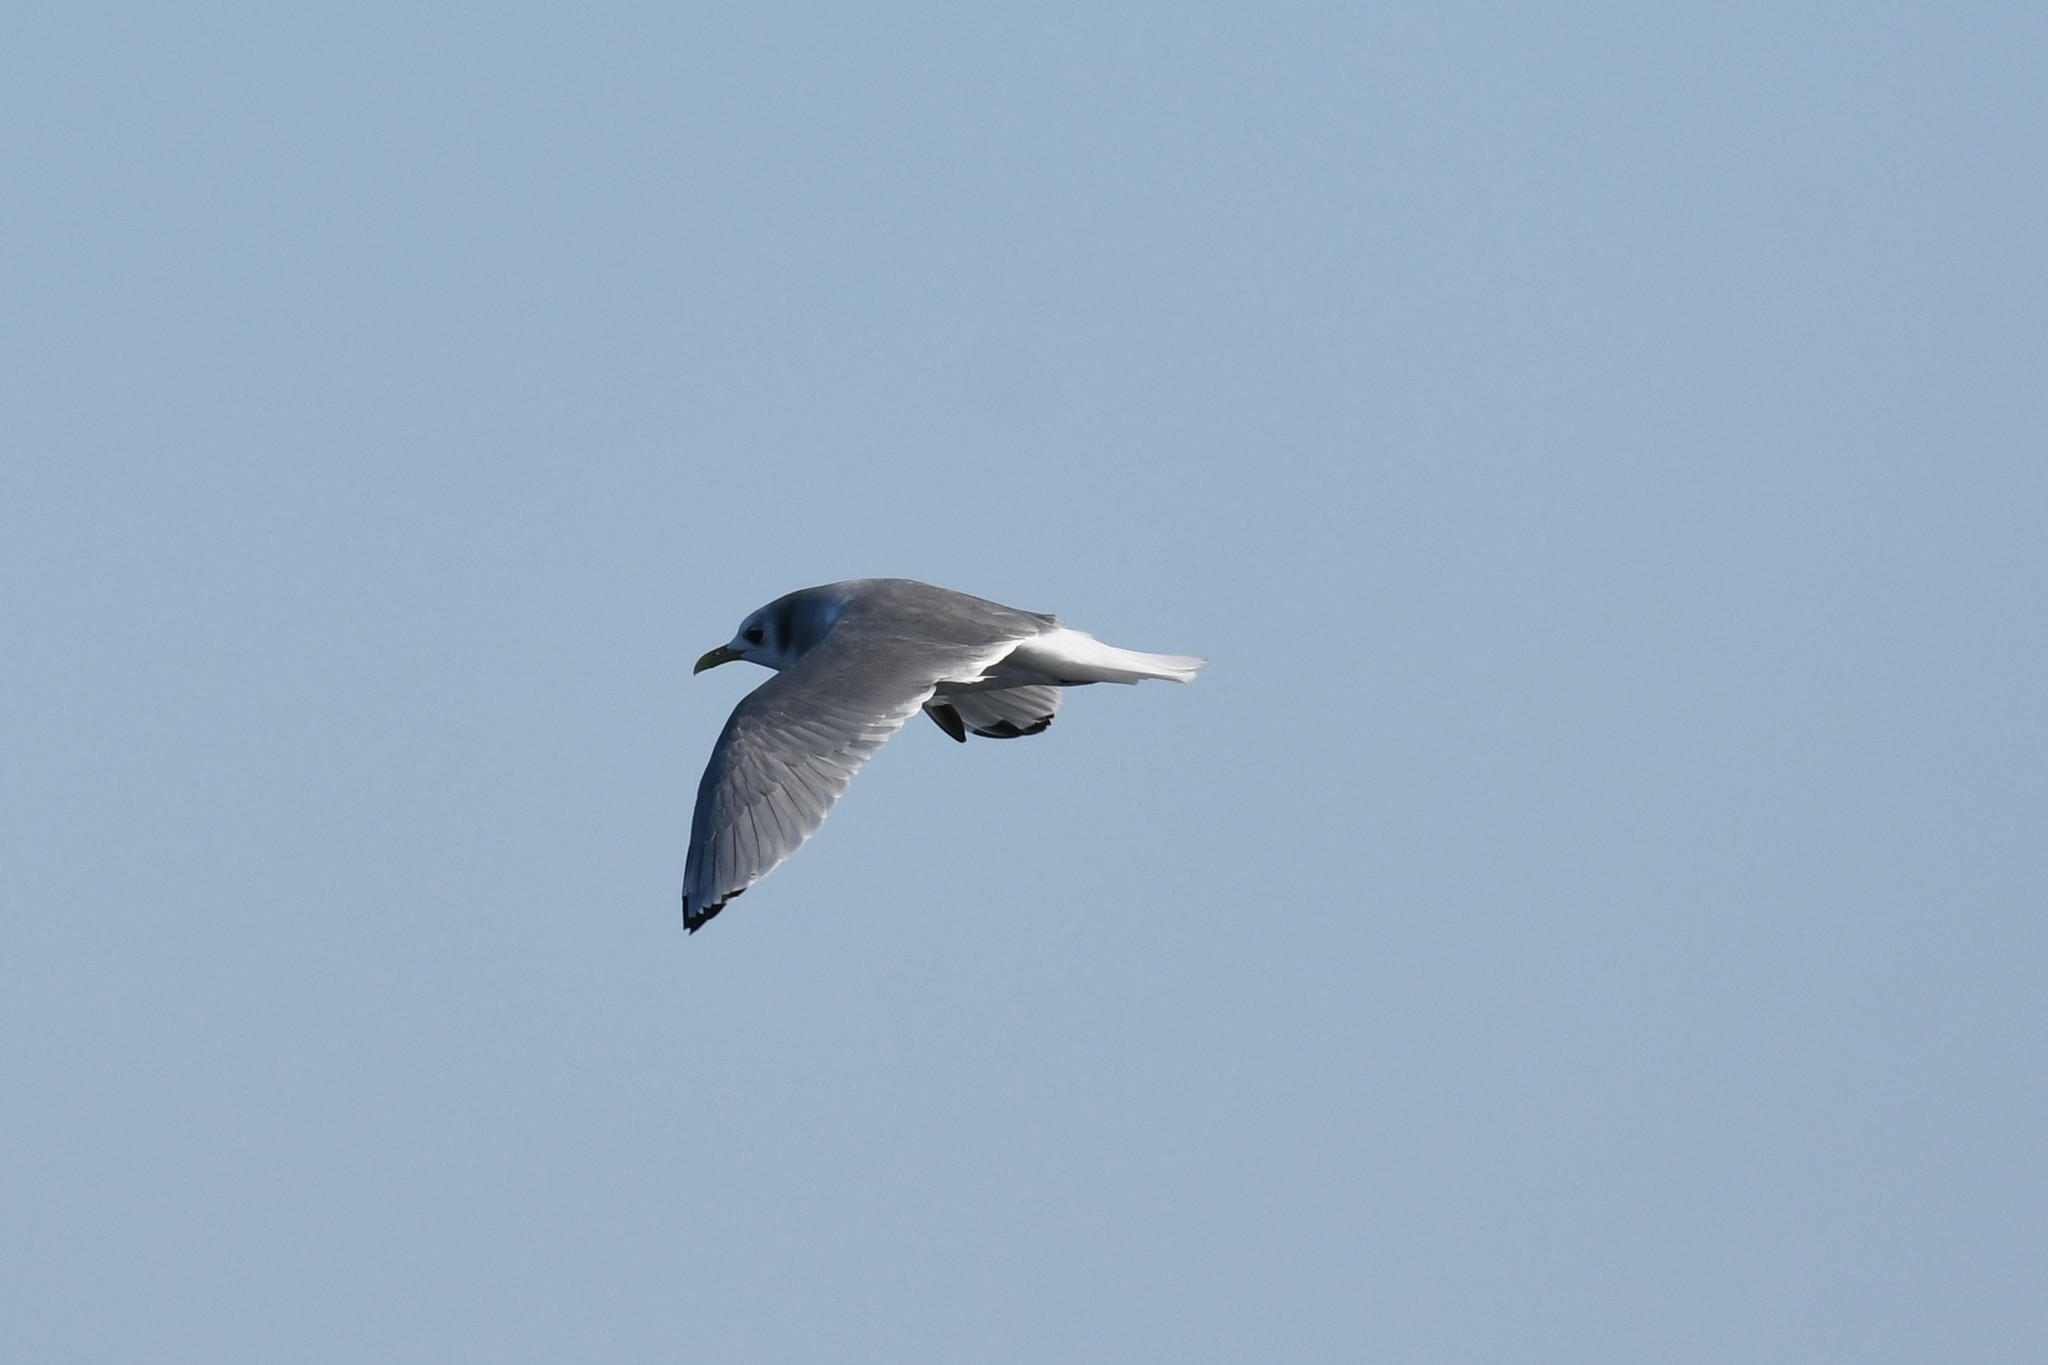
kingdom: Animalia
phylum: Chordata
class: Aves
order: Charadriiformes
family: Laridae
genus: Rissa
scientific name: Rissa tridactyla
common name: Black-legged kittiwake
